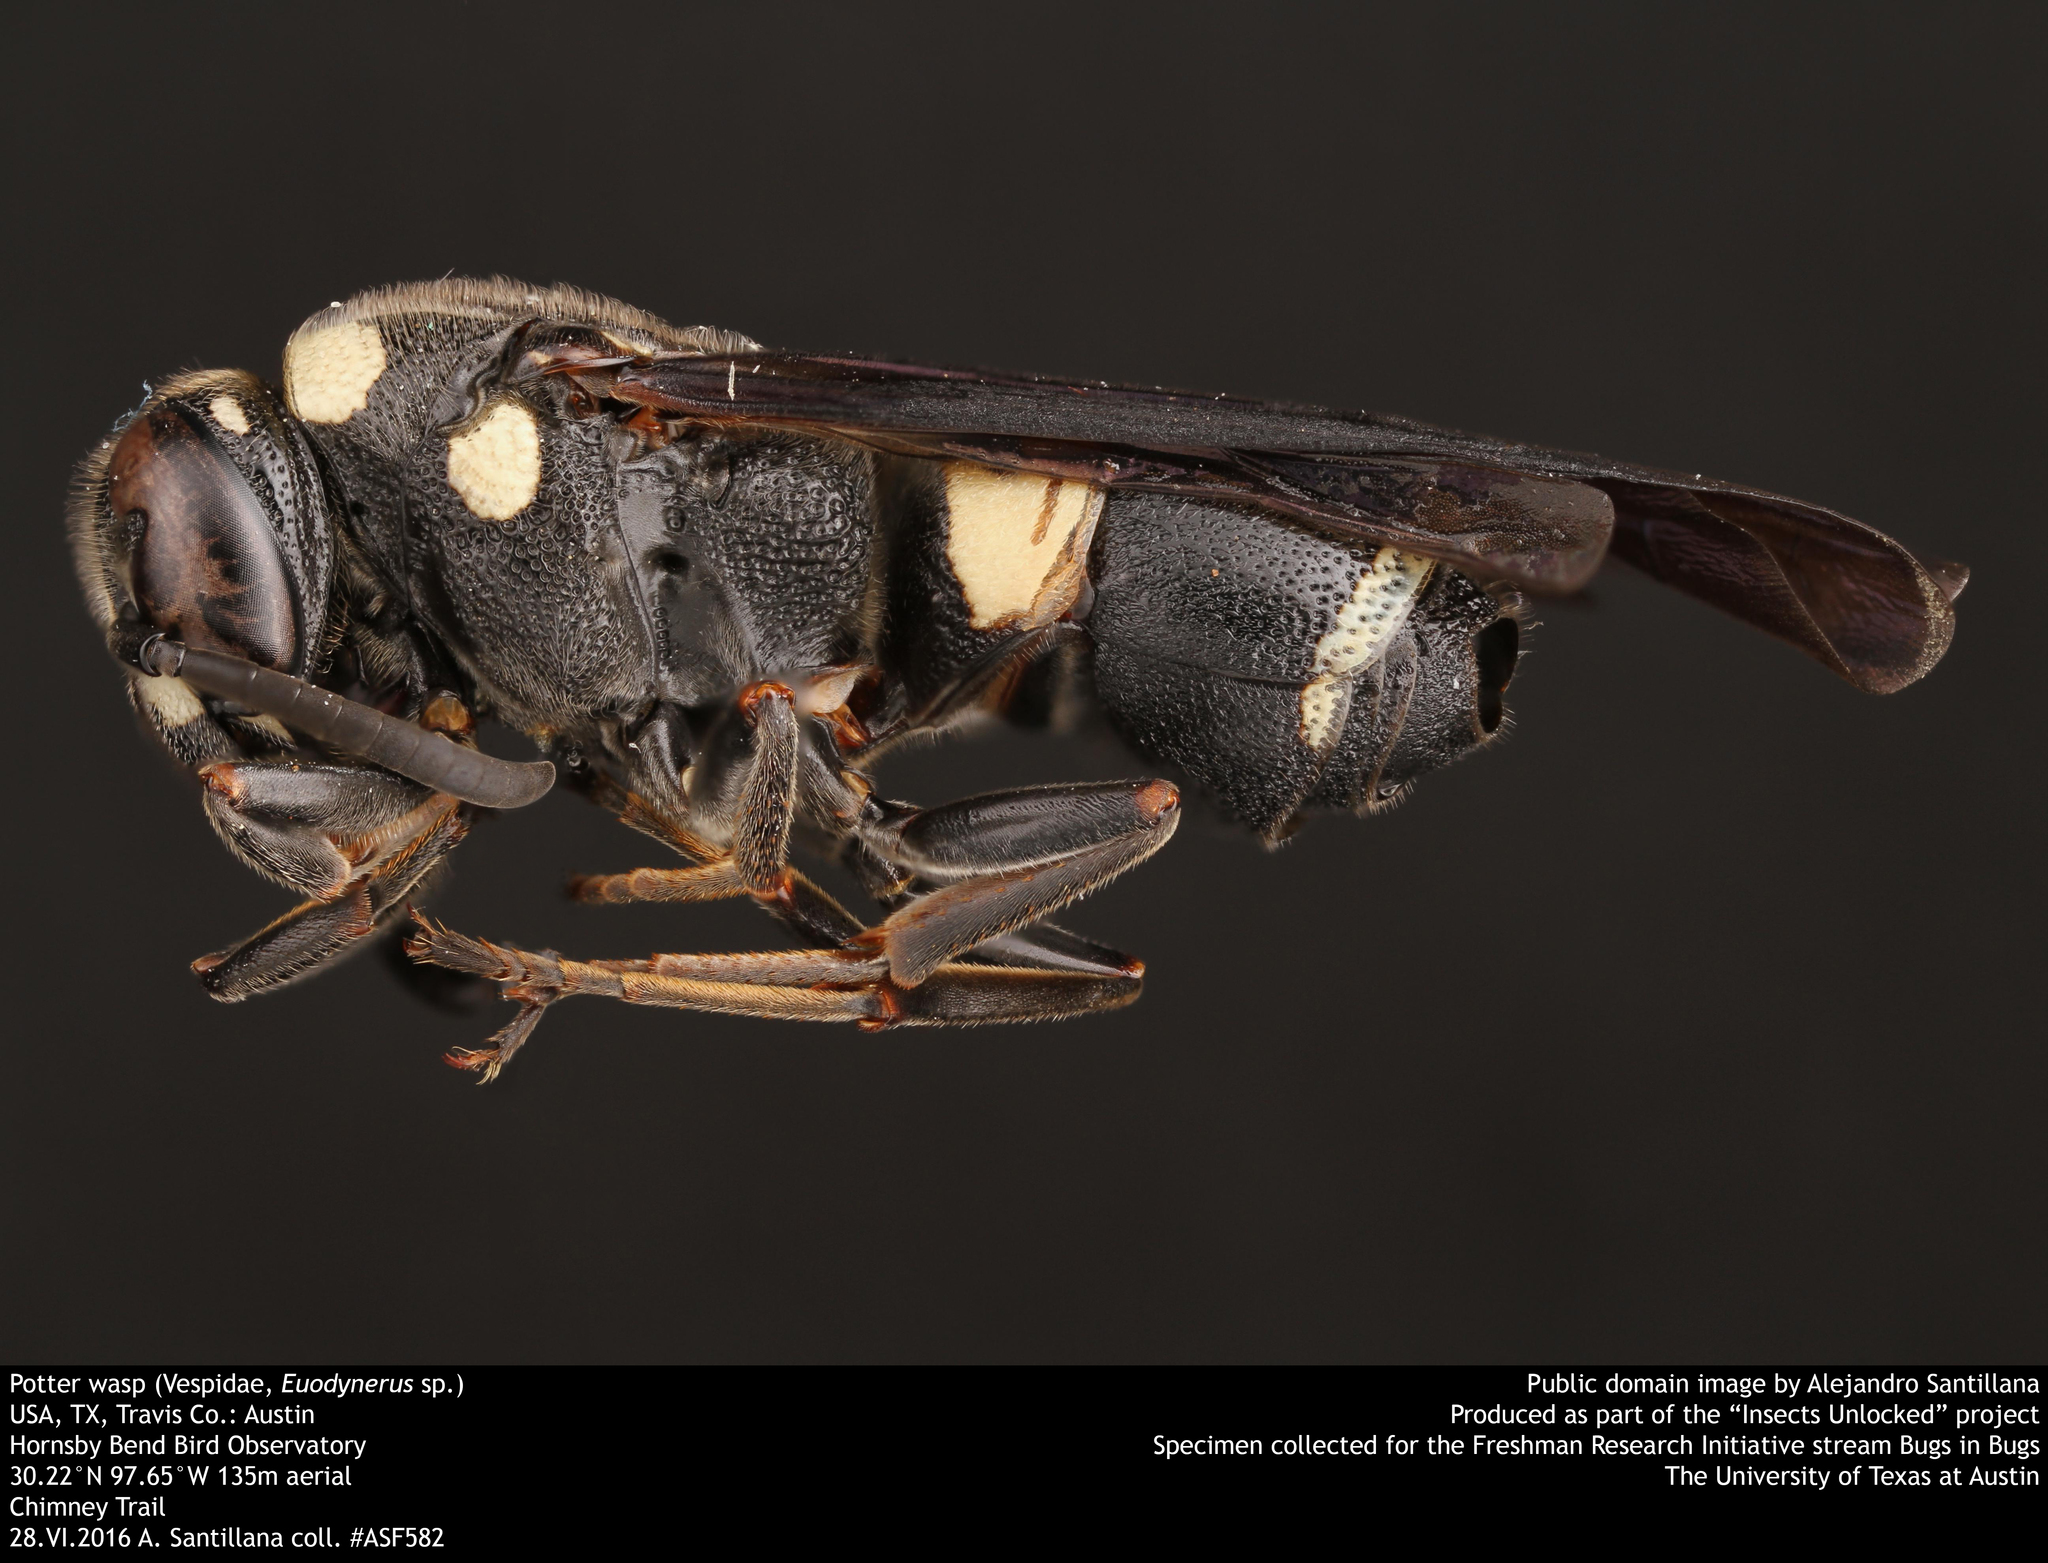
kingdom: Animalia
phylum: Arthropoda
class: Insecta
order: Hymenoptera
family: Eumenidae
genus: Euodynerus
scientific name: Euodynerus megaera
